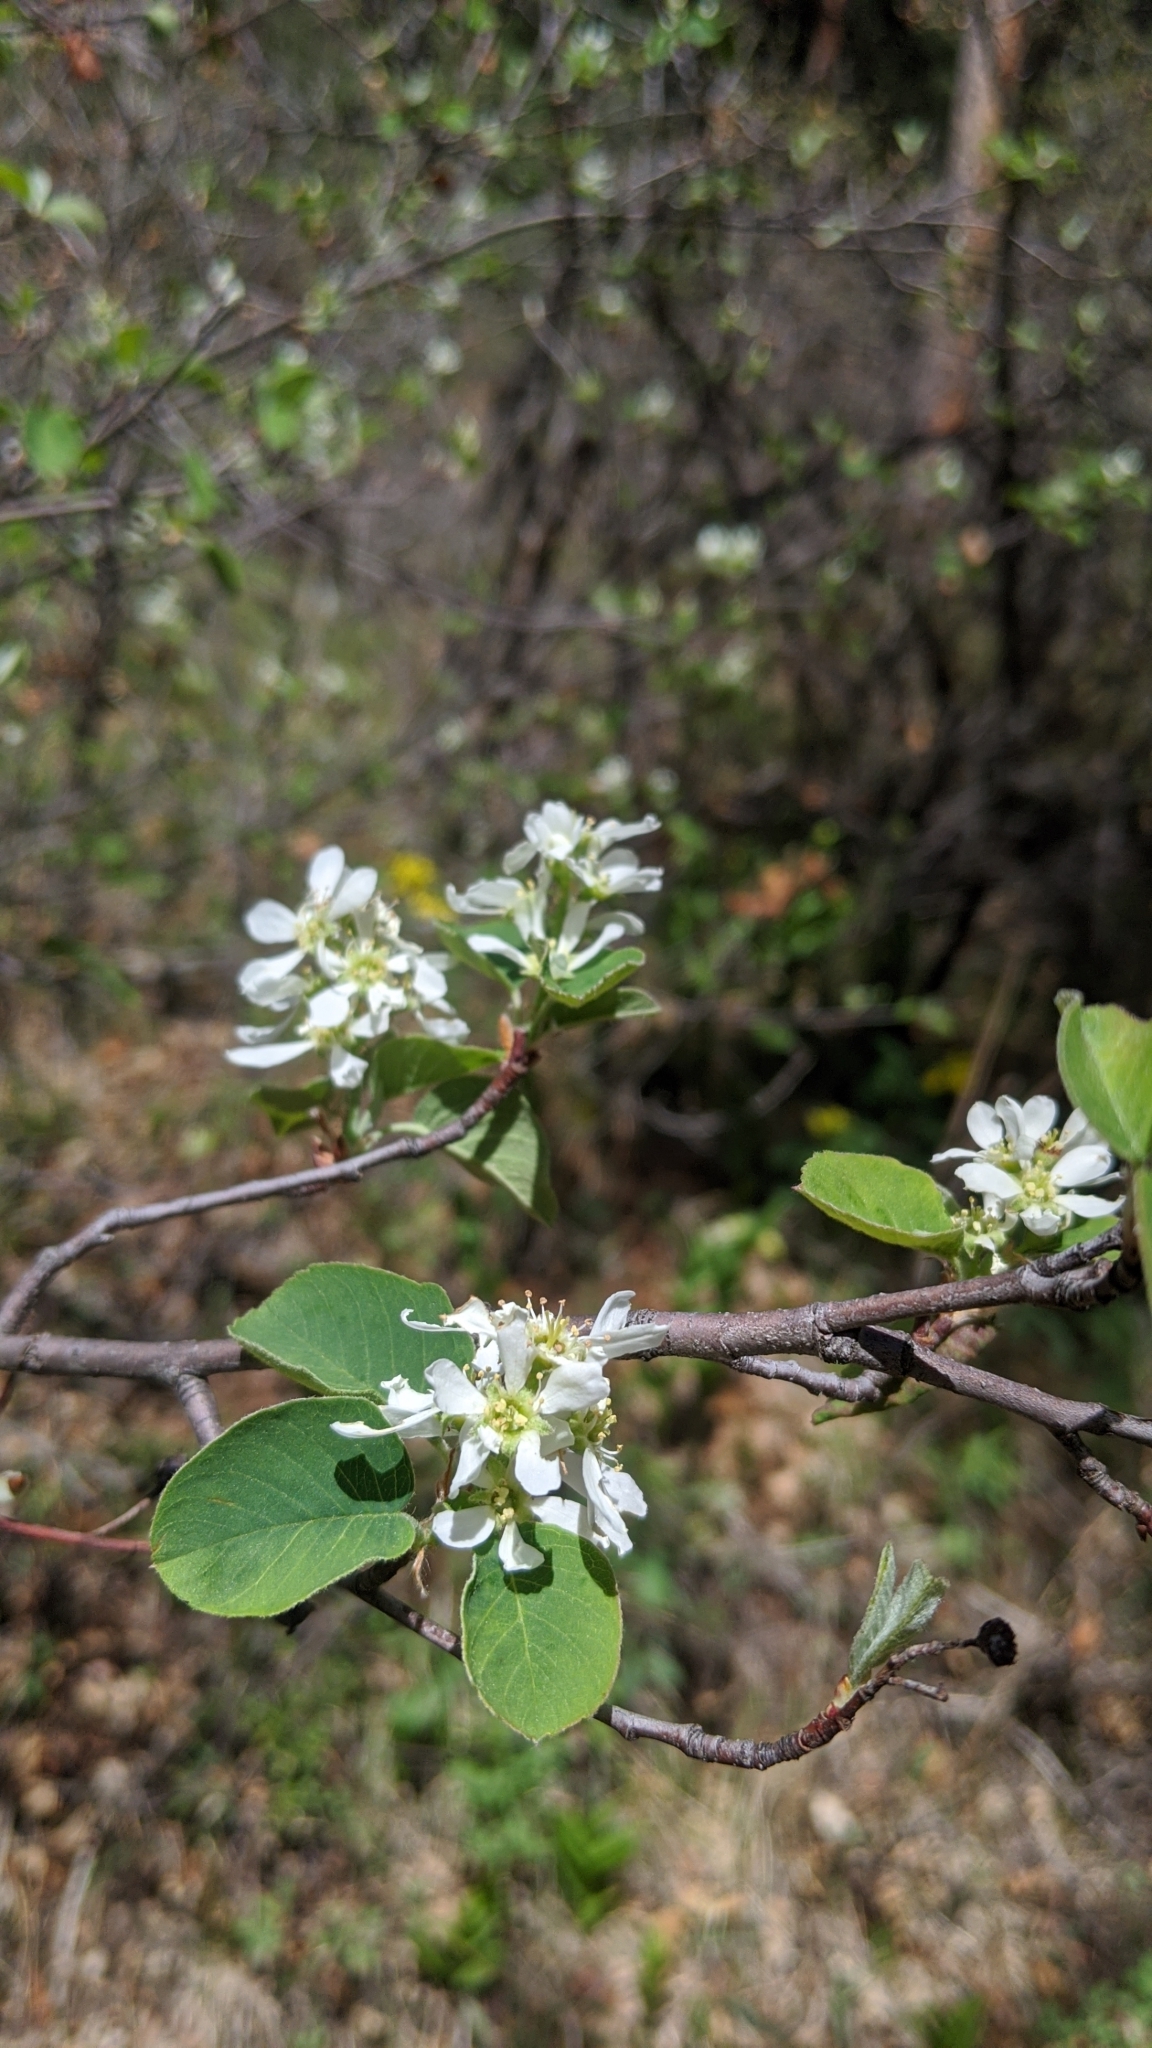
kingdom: Plantae
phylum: Tracheophyta
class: Magnoliopsida
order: Rosales
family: Rosaceae
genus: Amelanchier
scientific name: Amelanchier alnifolia
